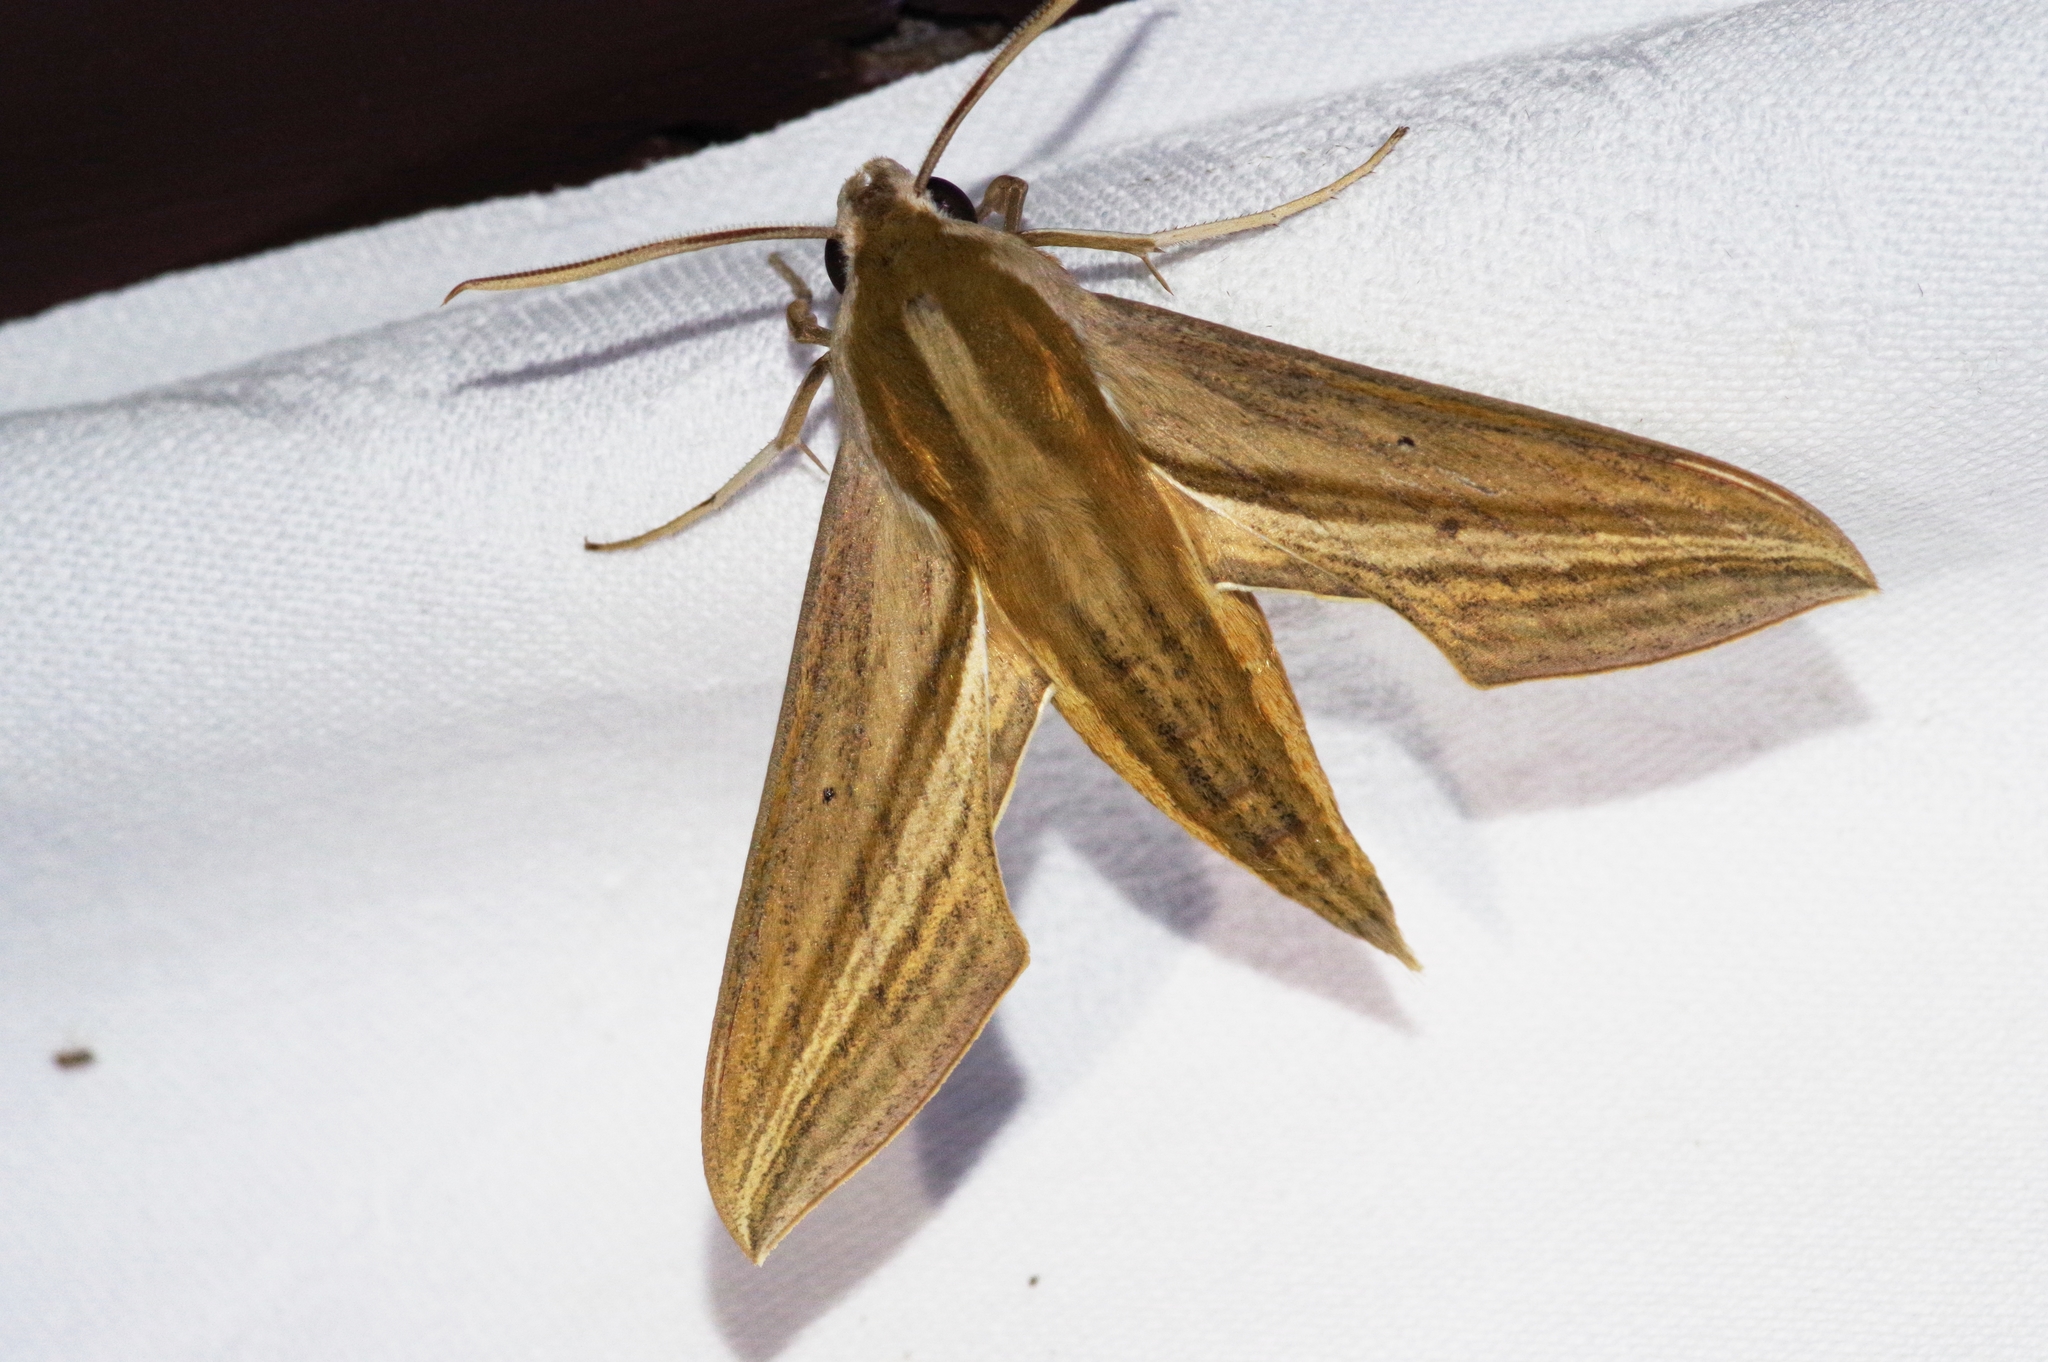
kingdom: Animalia
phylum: Arthropoda
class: Insecta
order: Lepidoptera
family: Sphingidae
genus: Theretra
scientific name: Theretra japonica
